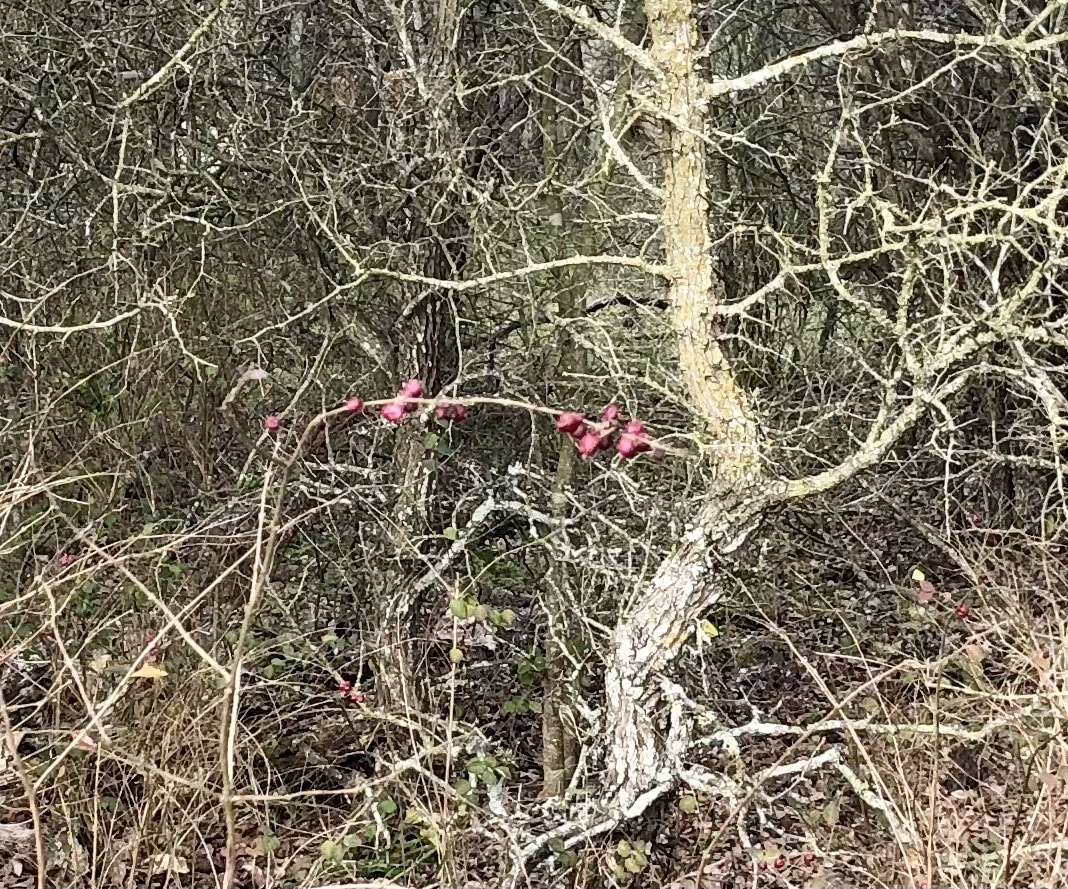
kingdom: Plantae
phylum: Tracheophyta
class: Magnoliopsida
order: Dipsacales
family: Caprifoliaceae
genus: Symphoricarpos
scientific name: Symphoricarpos orbiculatus
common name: Coralberry
